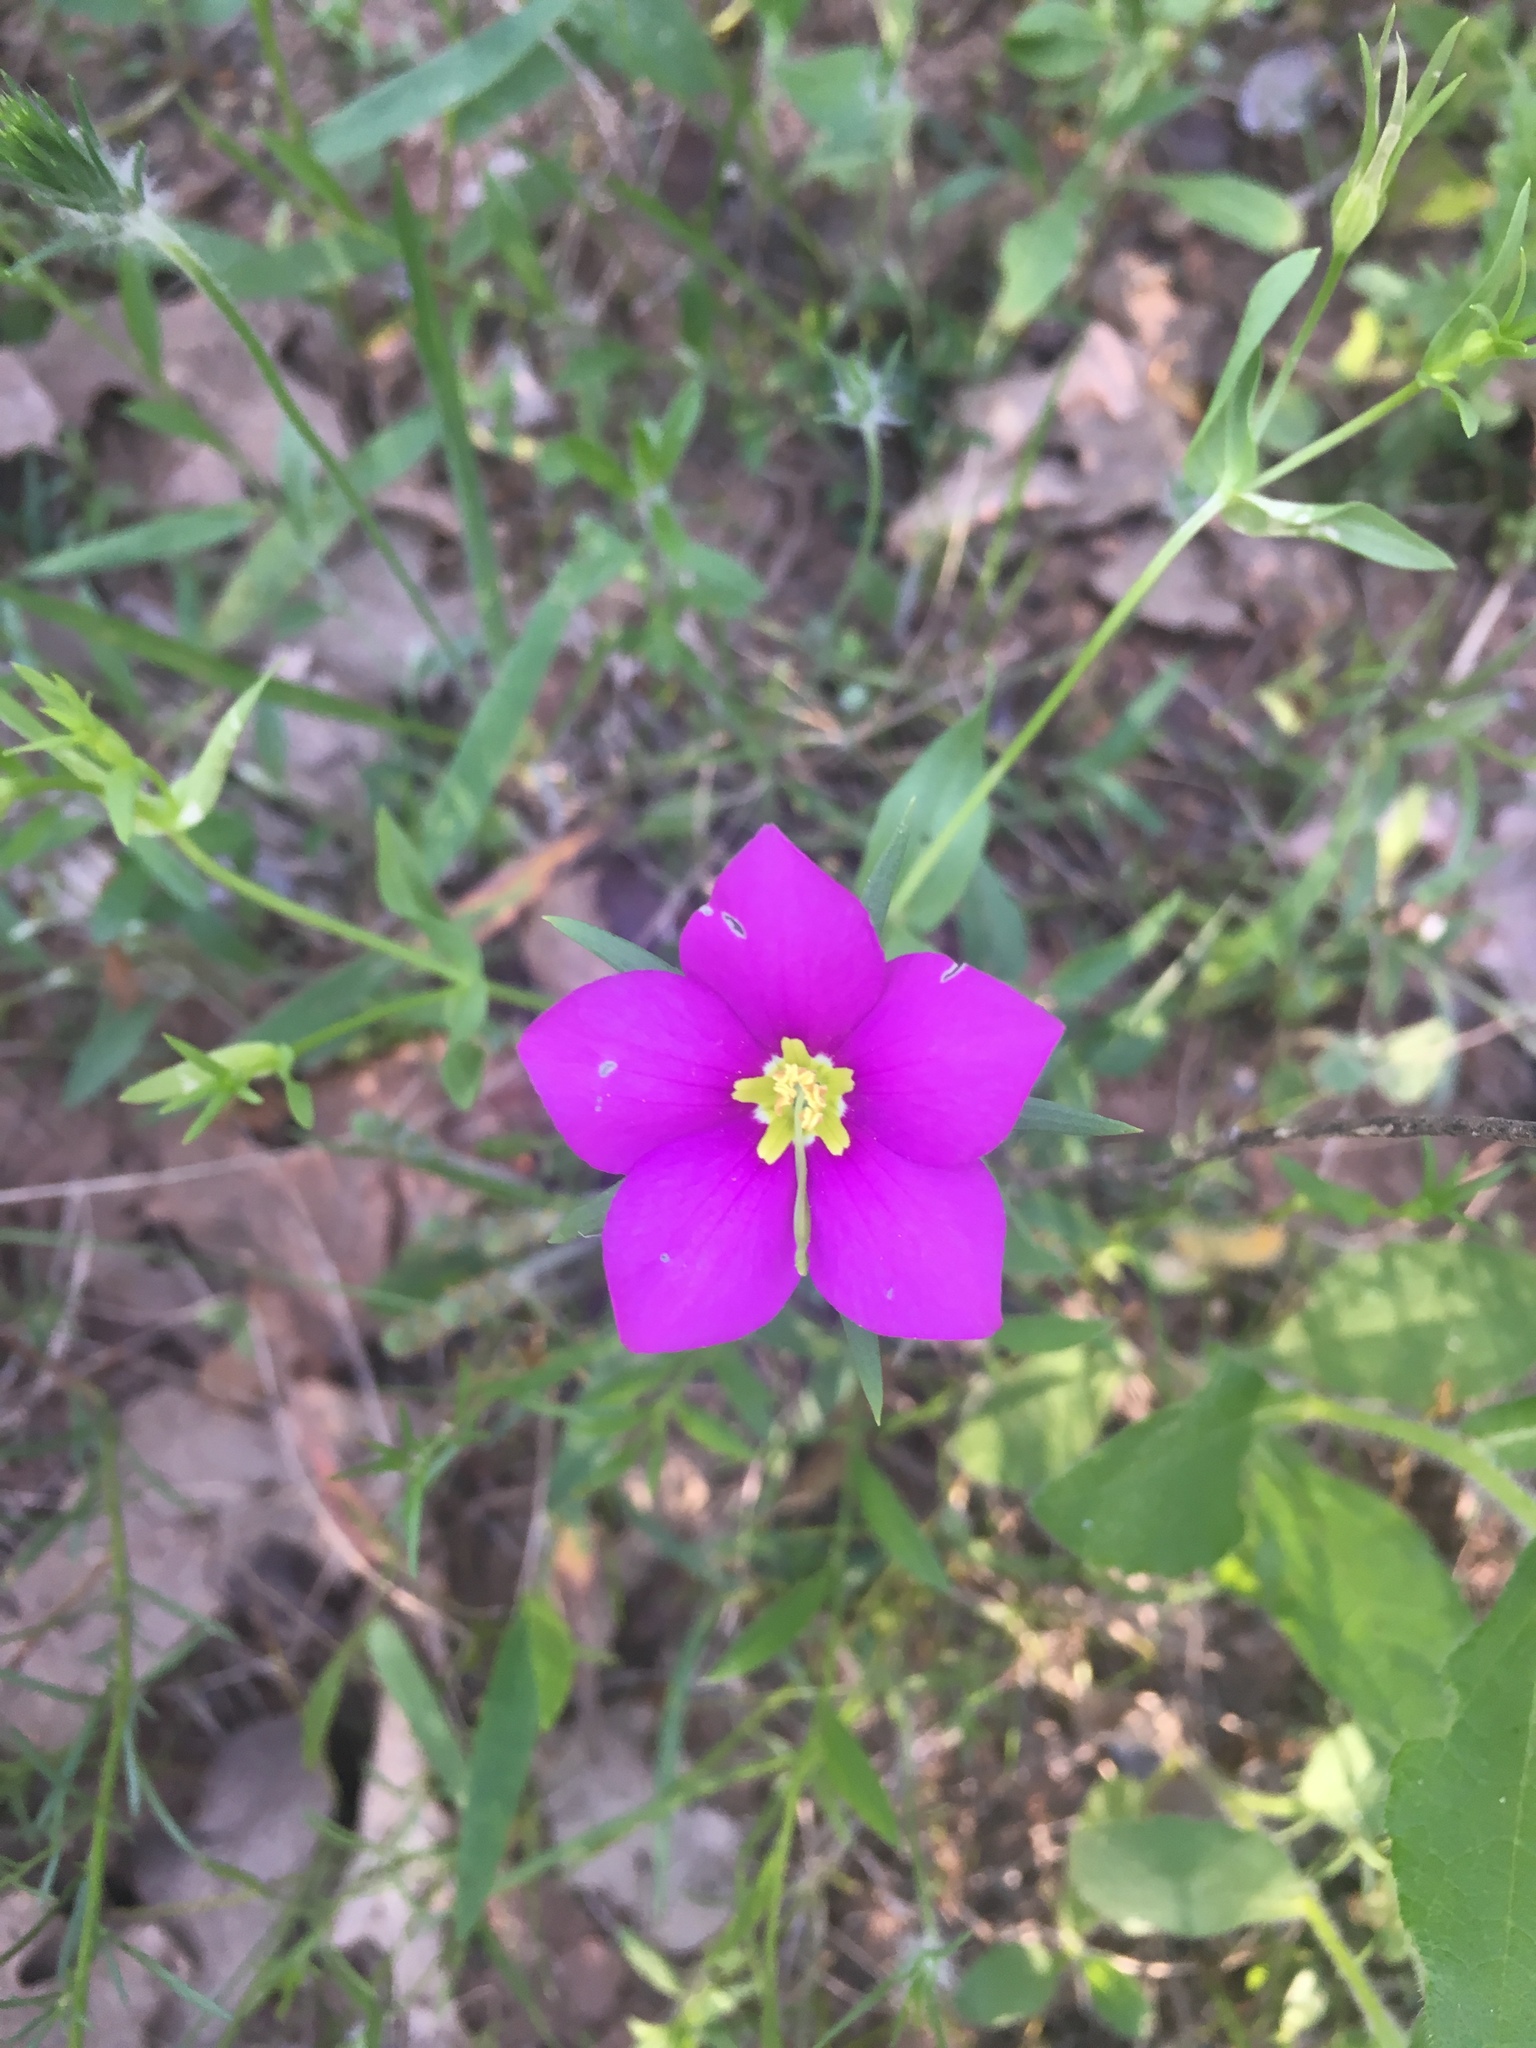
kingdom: Plantae
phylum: Tracheophyta
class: Magnoliopsida
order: Gentianales
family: Gentianaceae
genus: Sabatia
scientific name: Sabatia campestris
